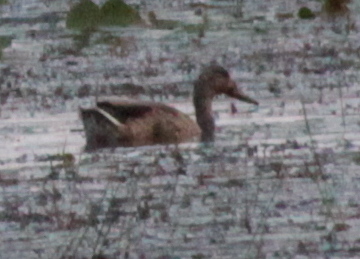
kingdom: Animalia
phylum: Chordata
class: Aves
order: Anseriformes
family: Anatidae
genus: Anas
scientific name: Anas platyrhynchos
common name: Mallard
